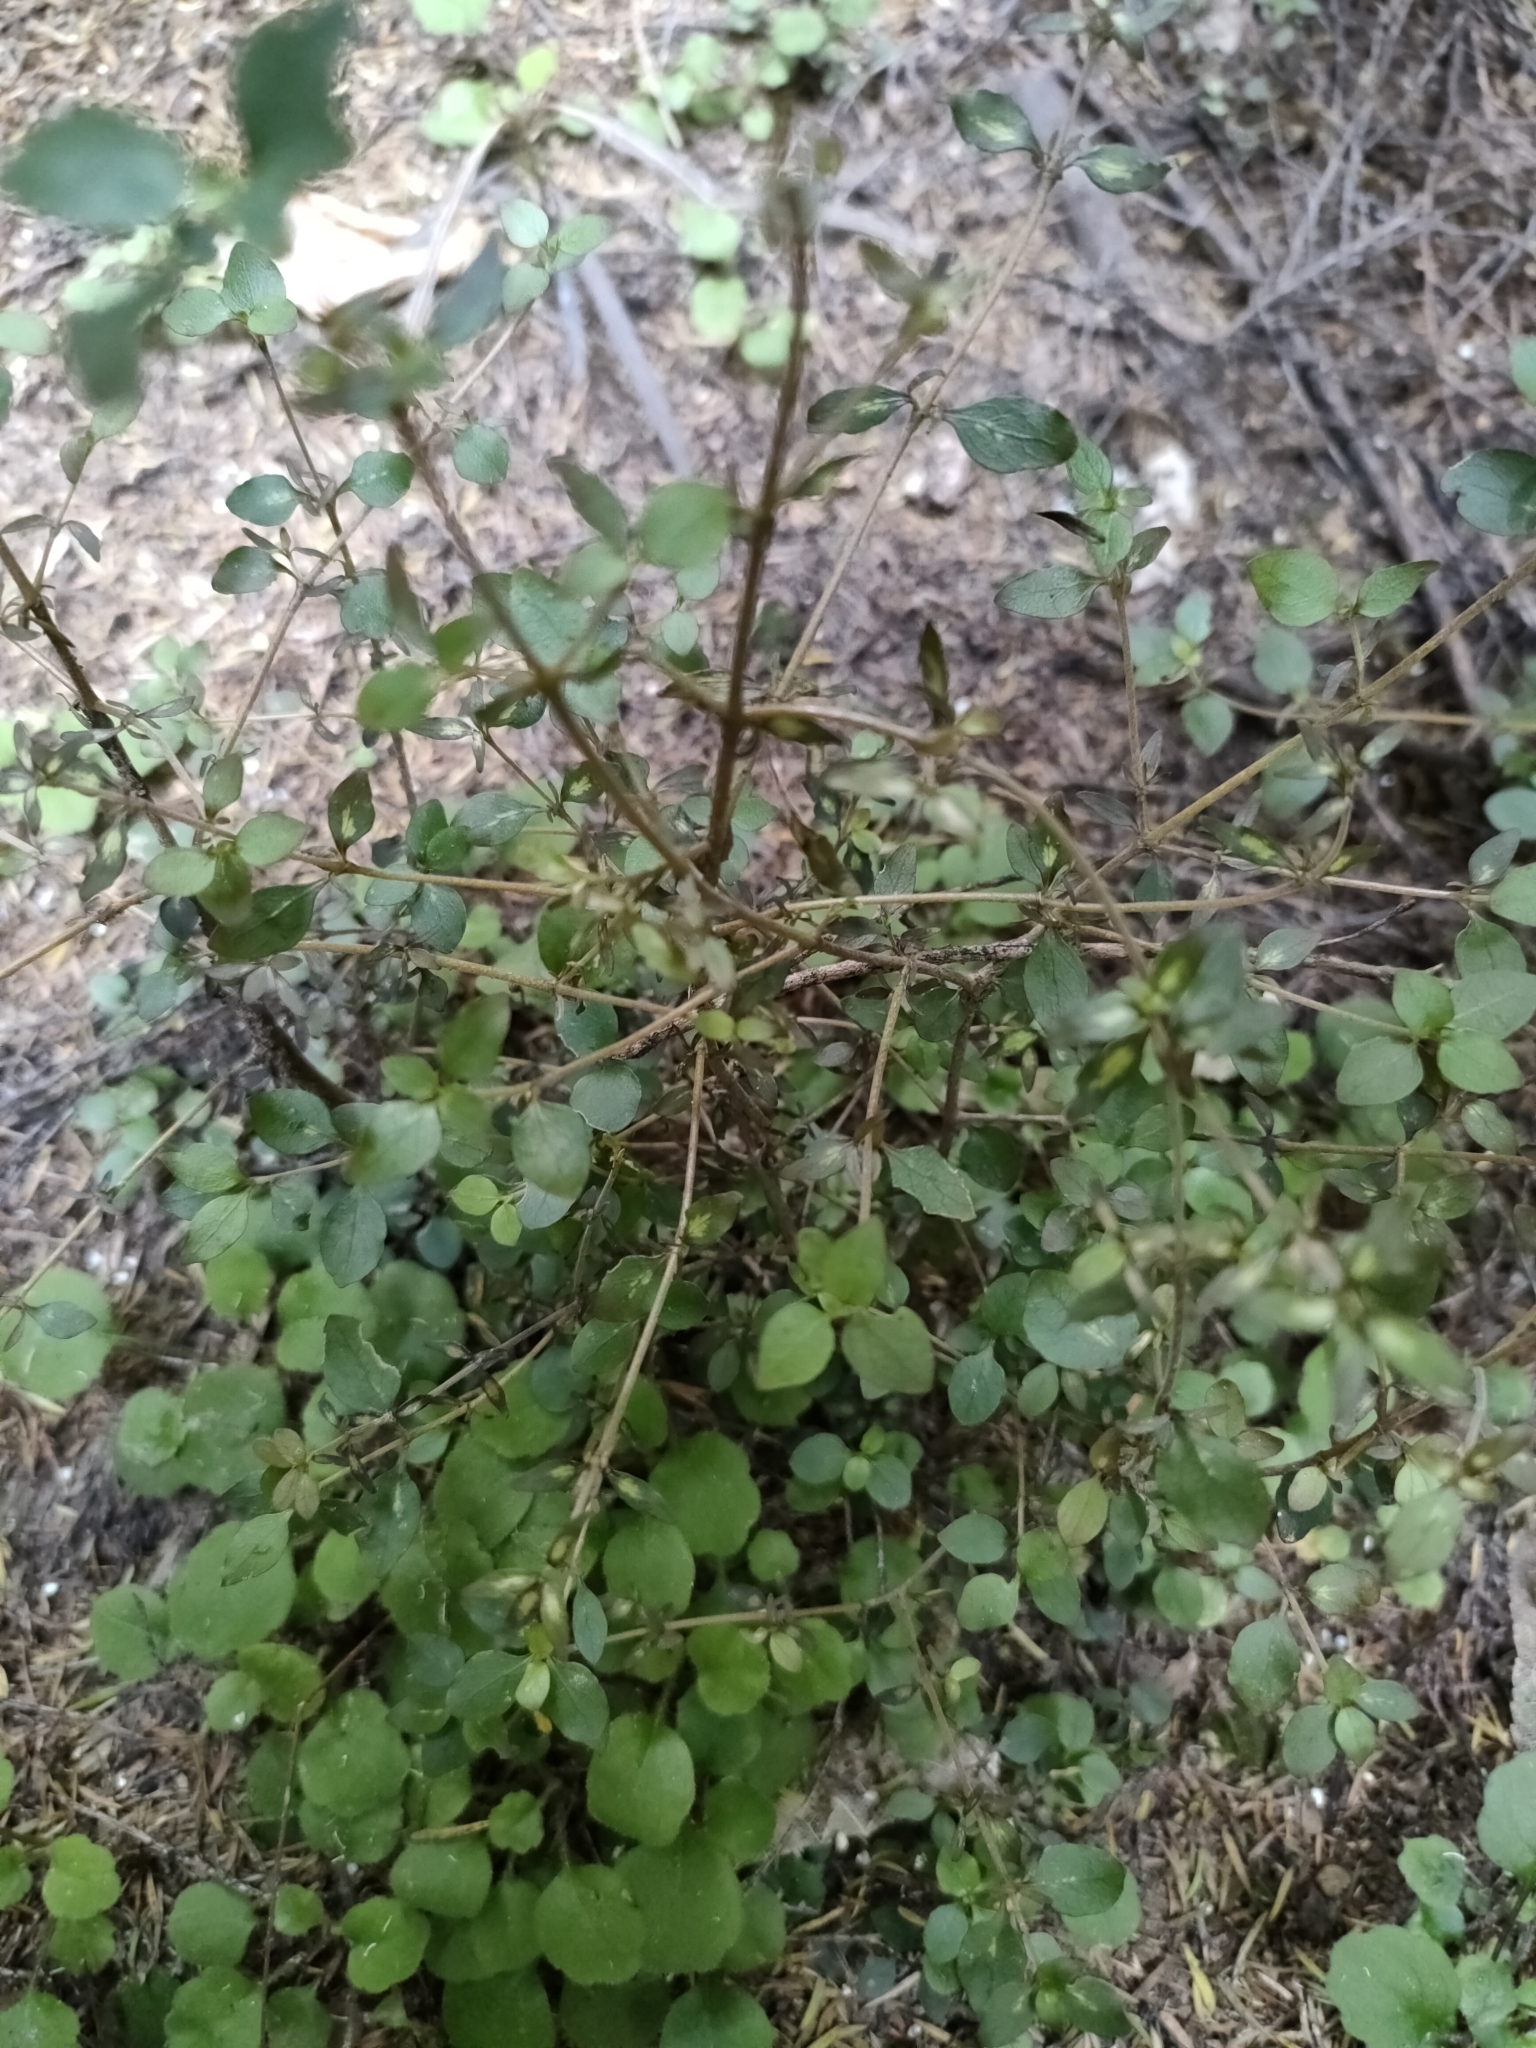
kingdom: Plantae
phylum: Tracheophyta
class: Magnoliopsida
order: Gentianales
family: Rubiaceae
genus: Coprosma
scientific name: Coprosma rhamnoides
